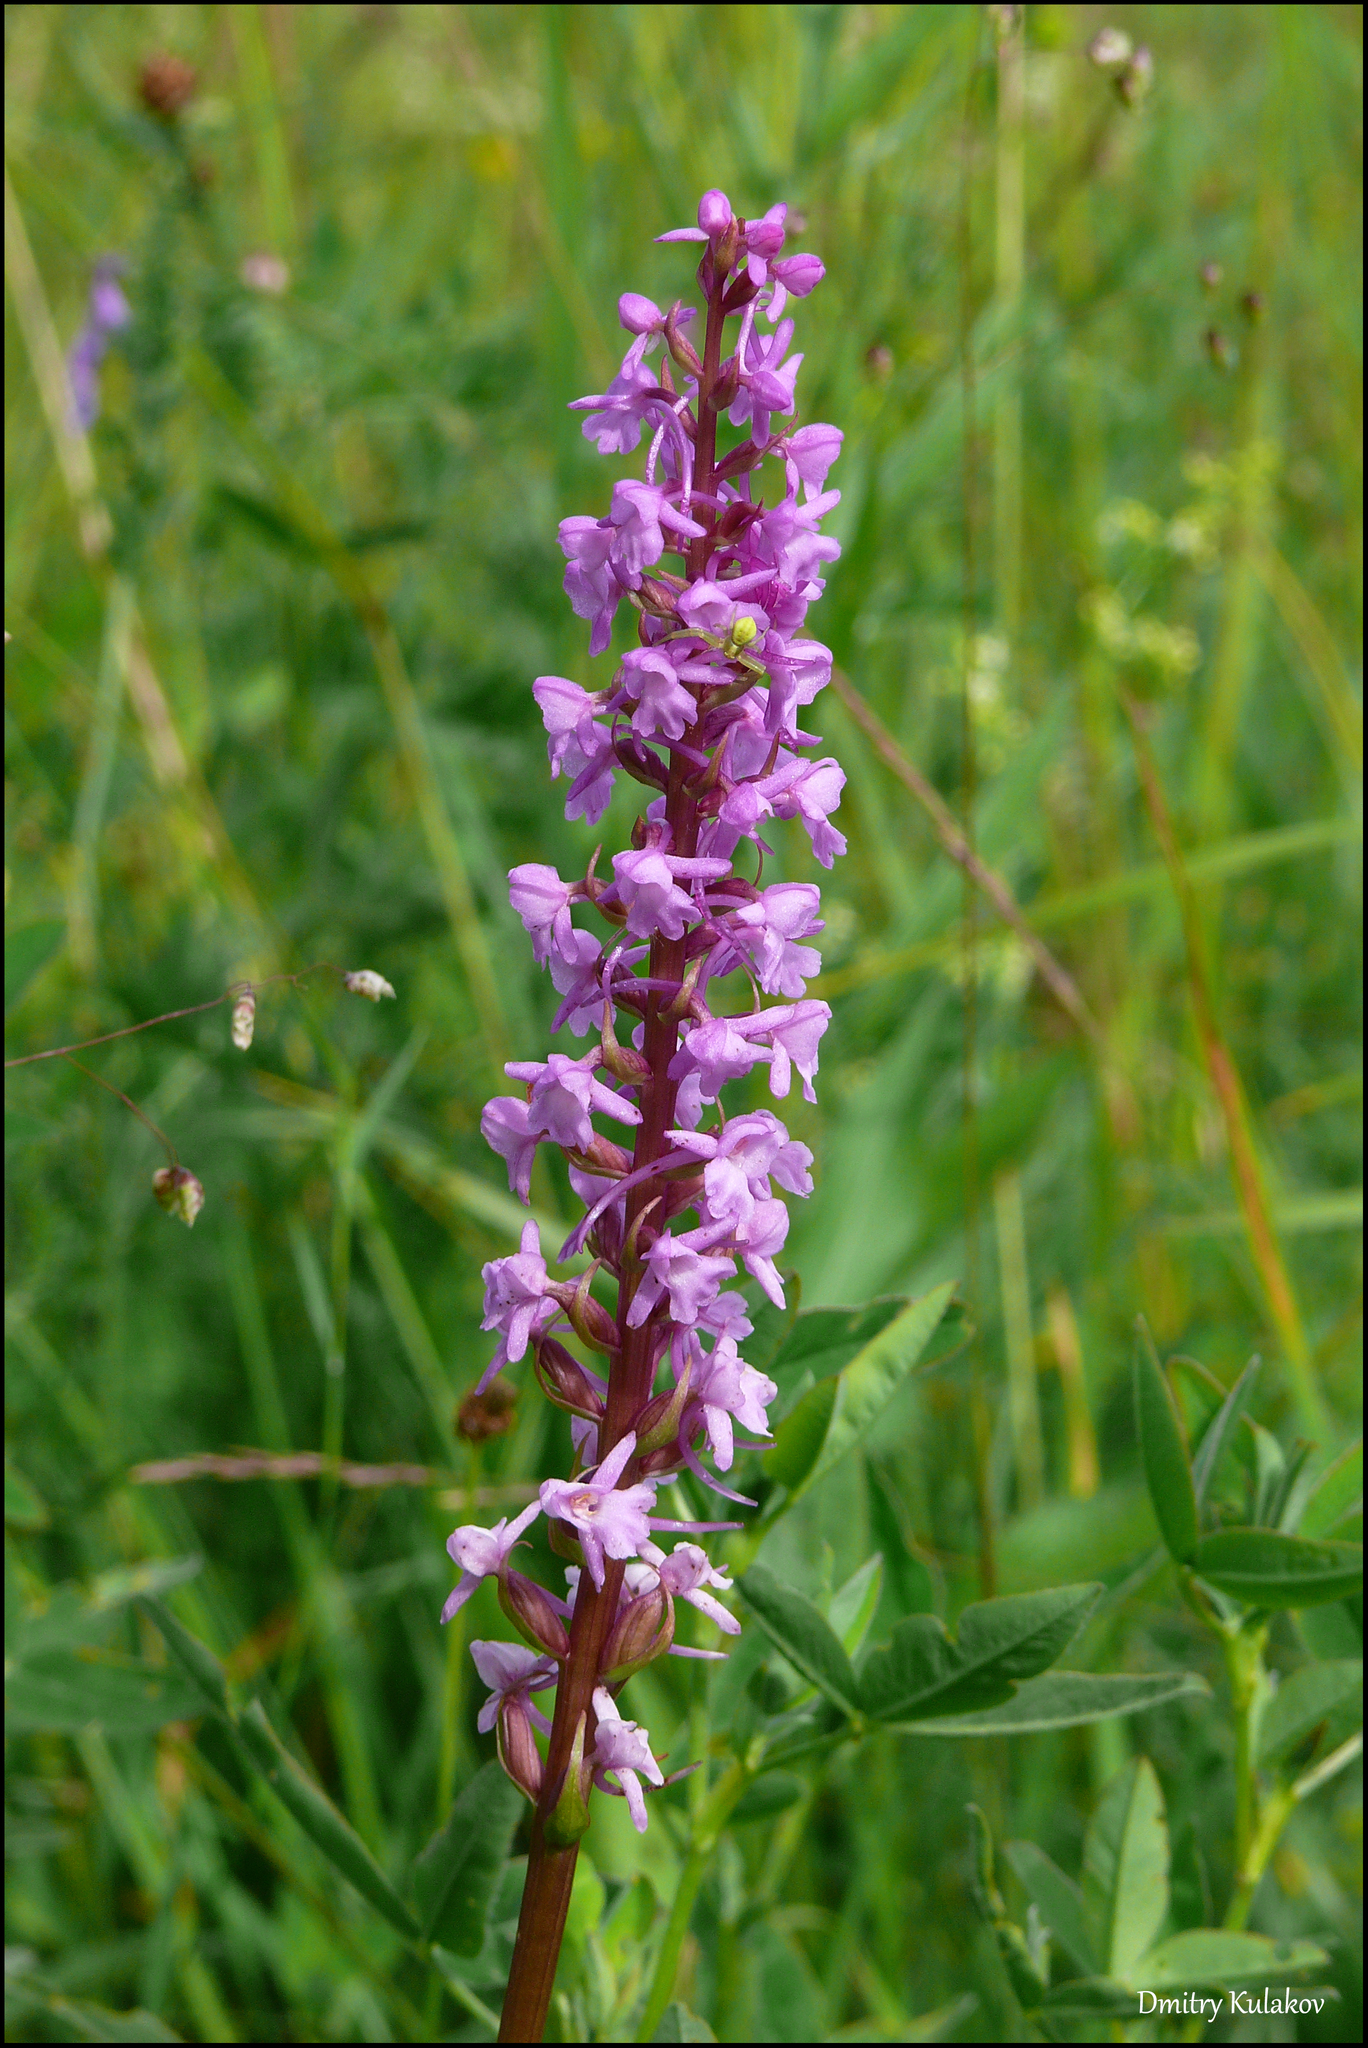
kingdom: Plantae
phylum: Tracheophyta
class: Liliopsida
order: Asparagales
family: Orchidaceae
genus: Gymnadenia
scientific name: Gymnadenia conopsea
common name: Fragrant orchid
